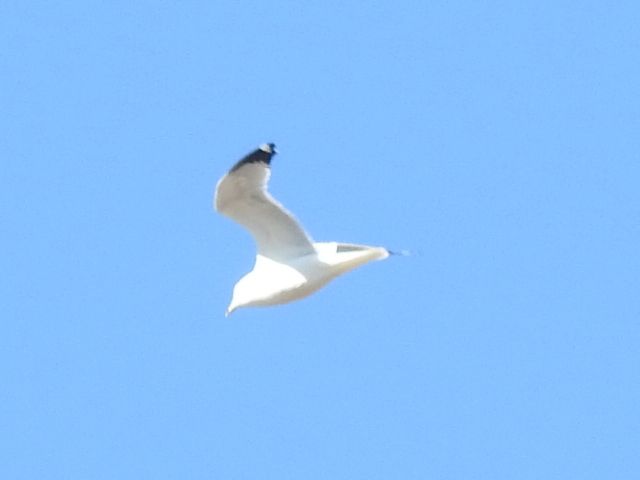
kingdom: Animalia
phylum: Chordata
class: Aves
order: Charadriiformes
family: Laridae
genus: Larus
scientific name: Larus delawarensis
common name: Ring-billed gull
